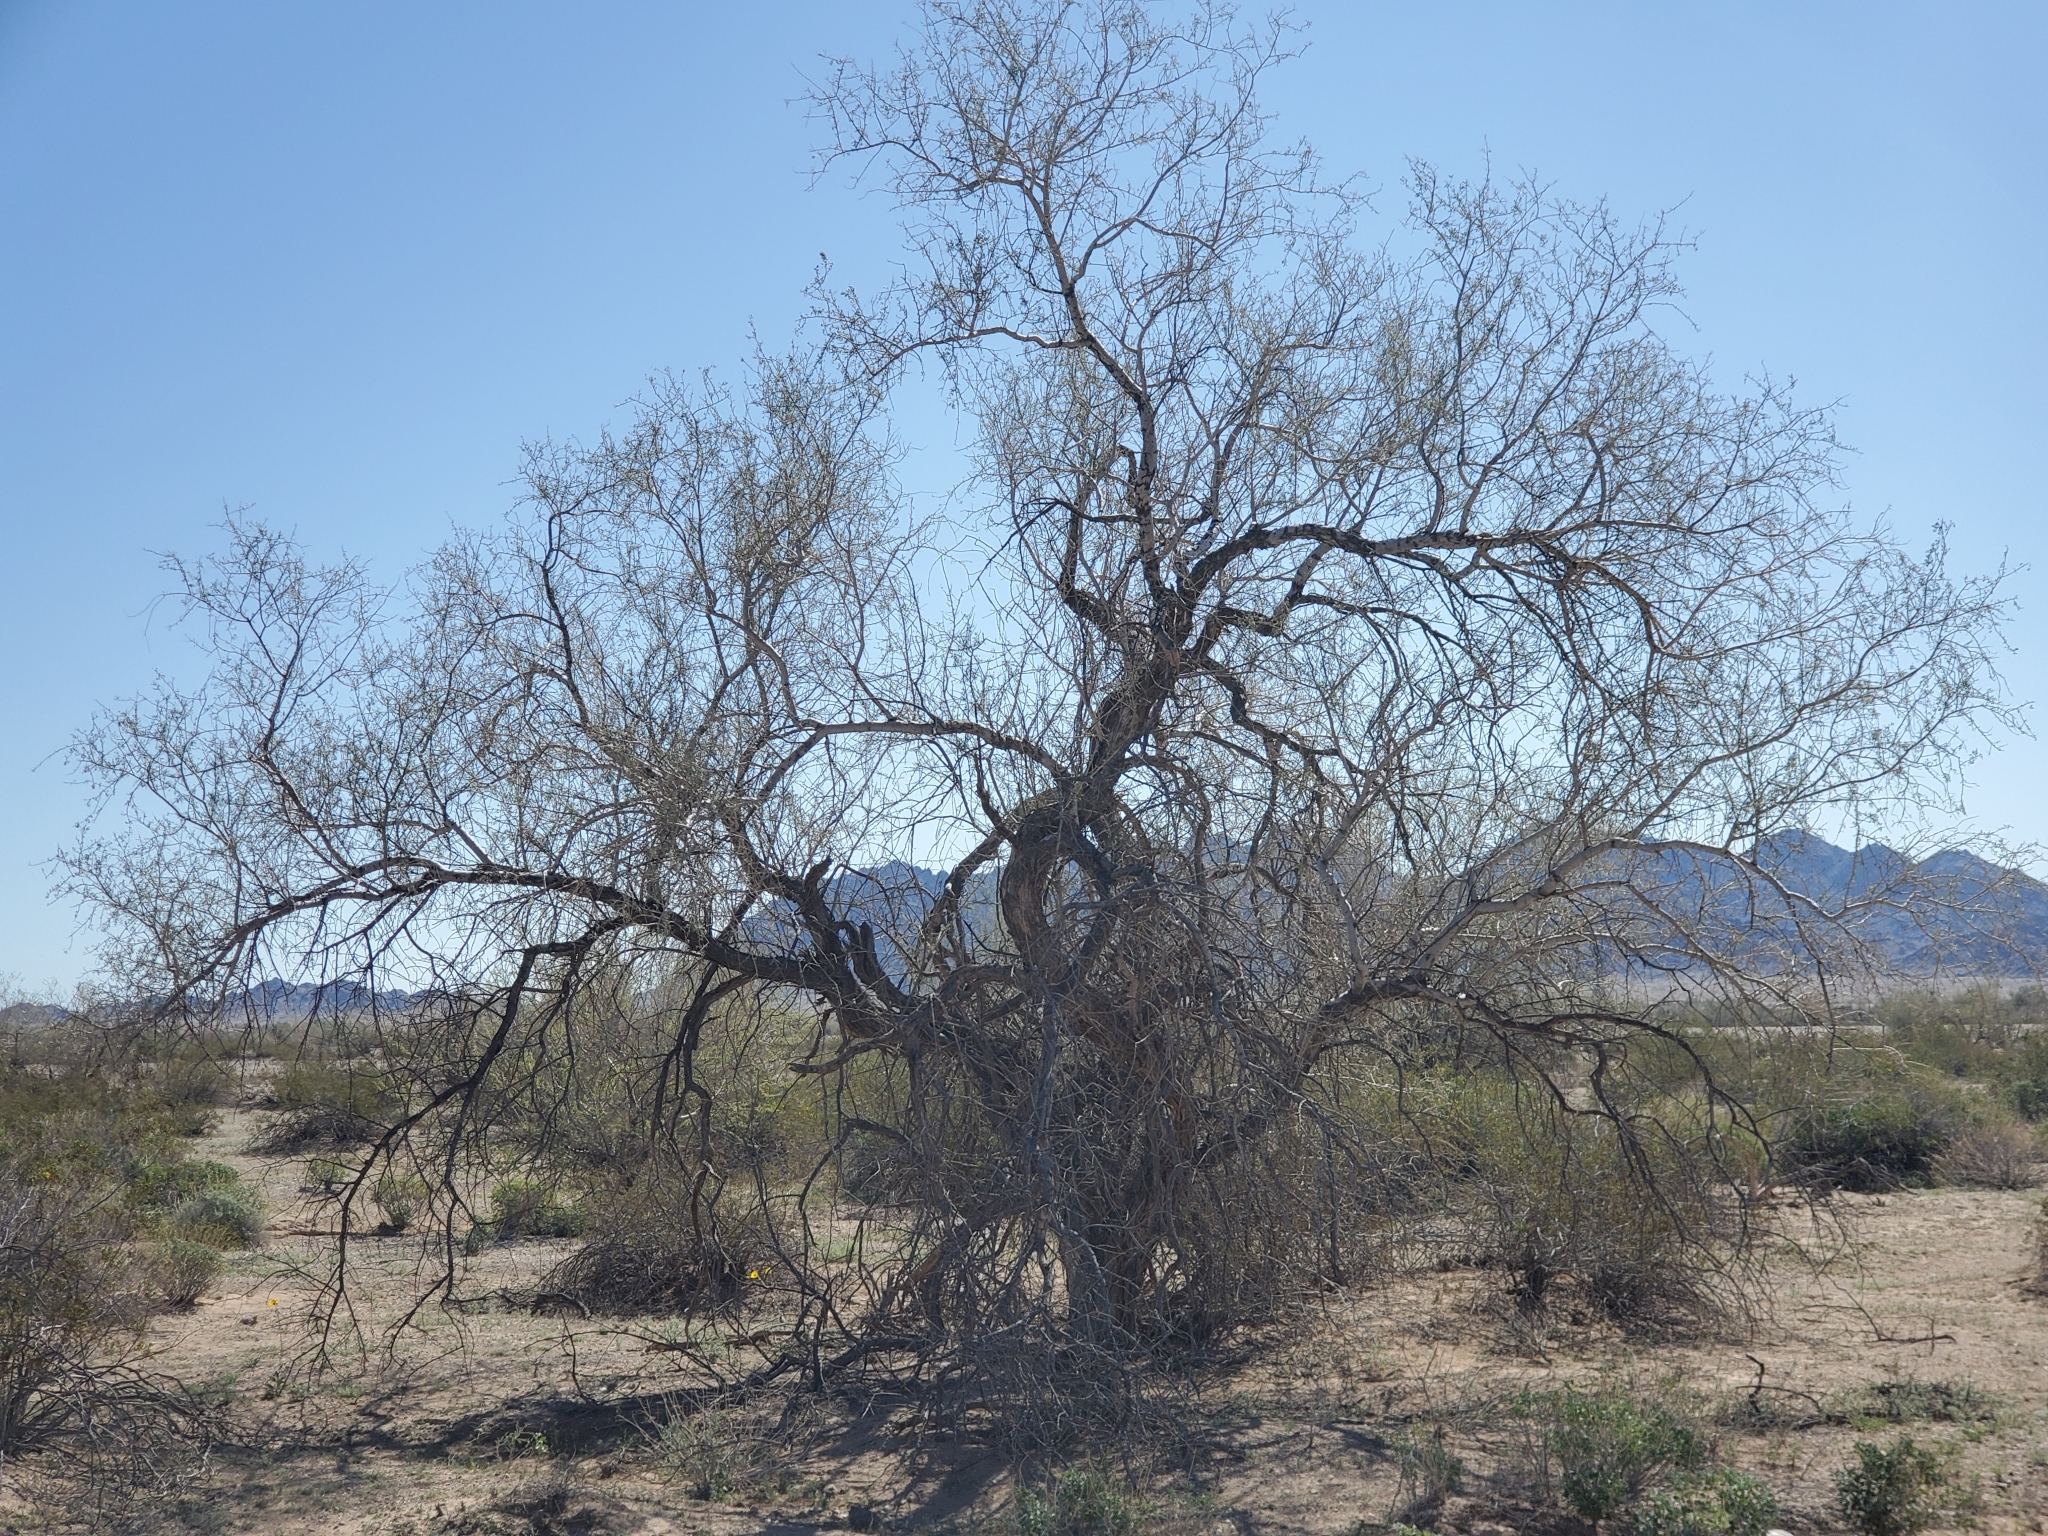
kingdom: Plantae
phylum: Tracheophyta
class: Magnoliopsida
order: Fabales
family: Fabaceae
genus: Olneya
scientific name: Olneya tesota
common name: Desert ironwood
